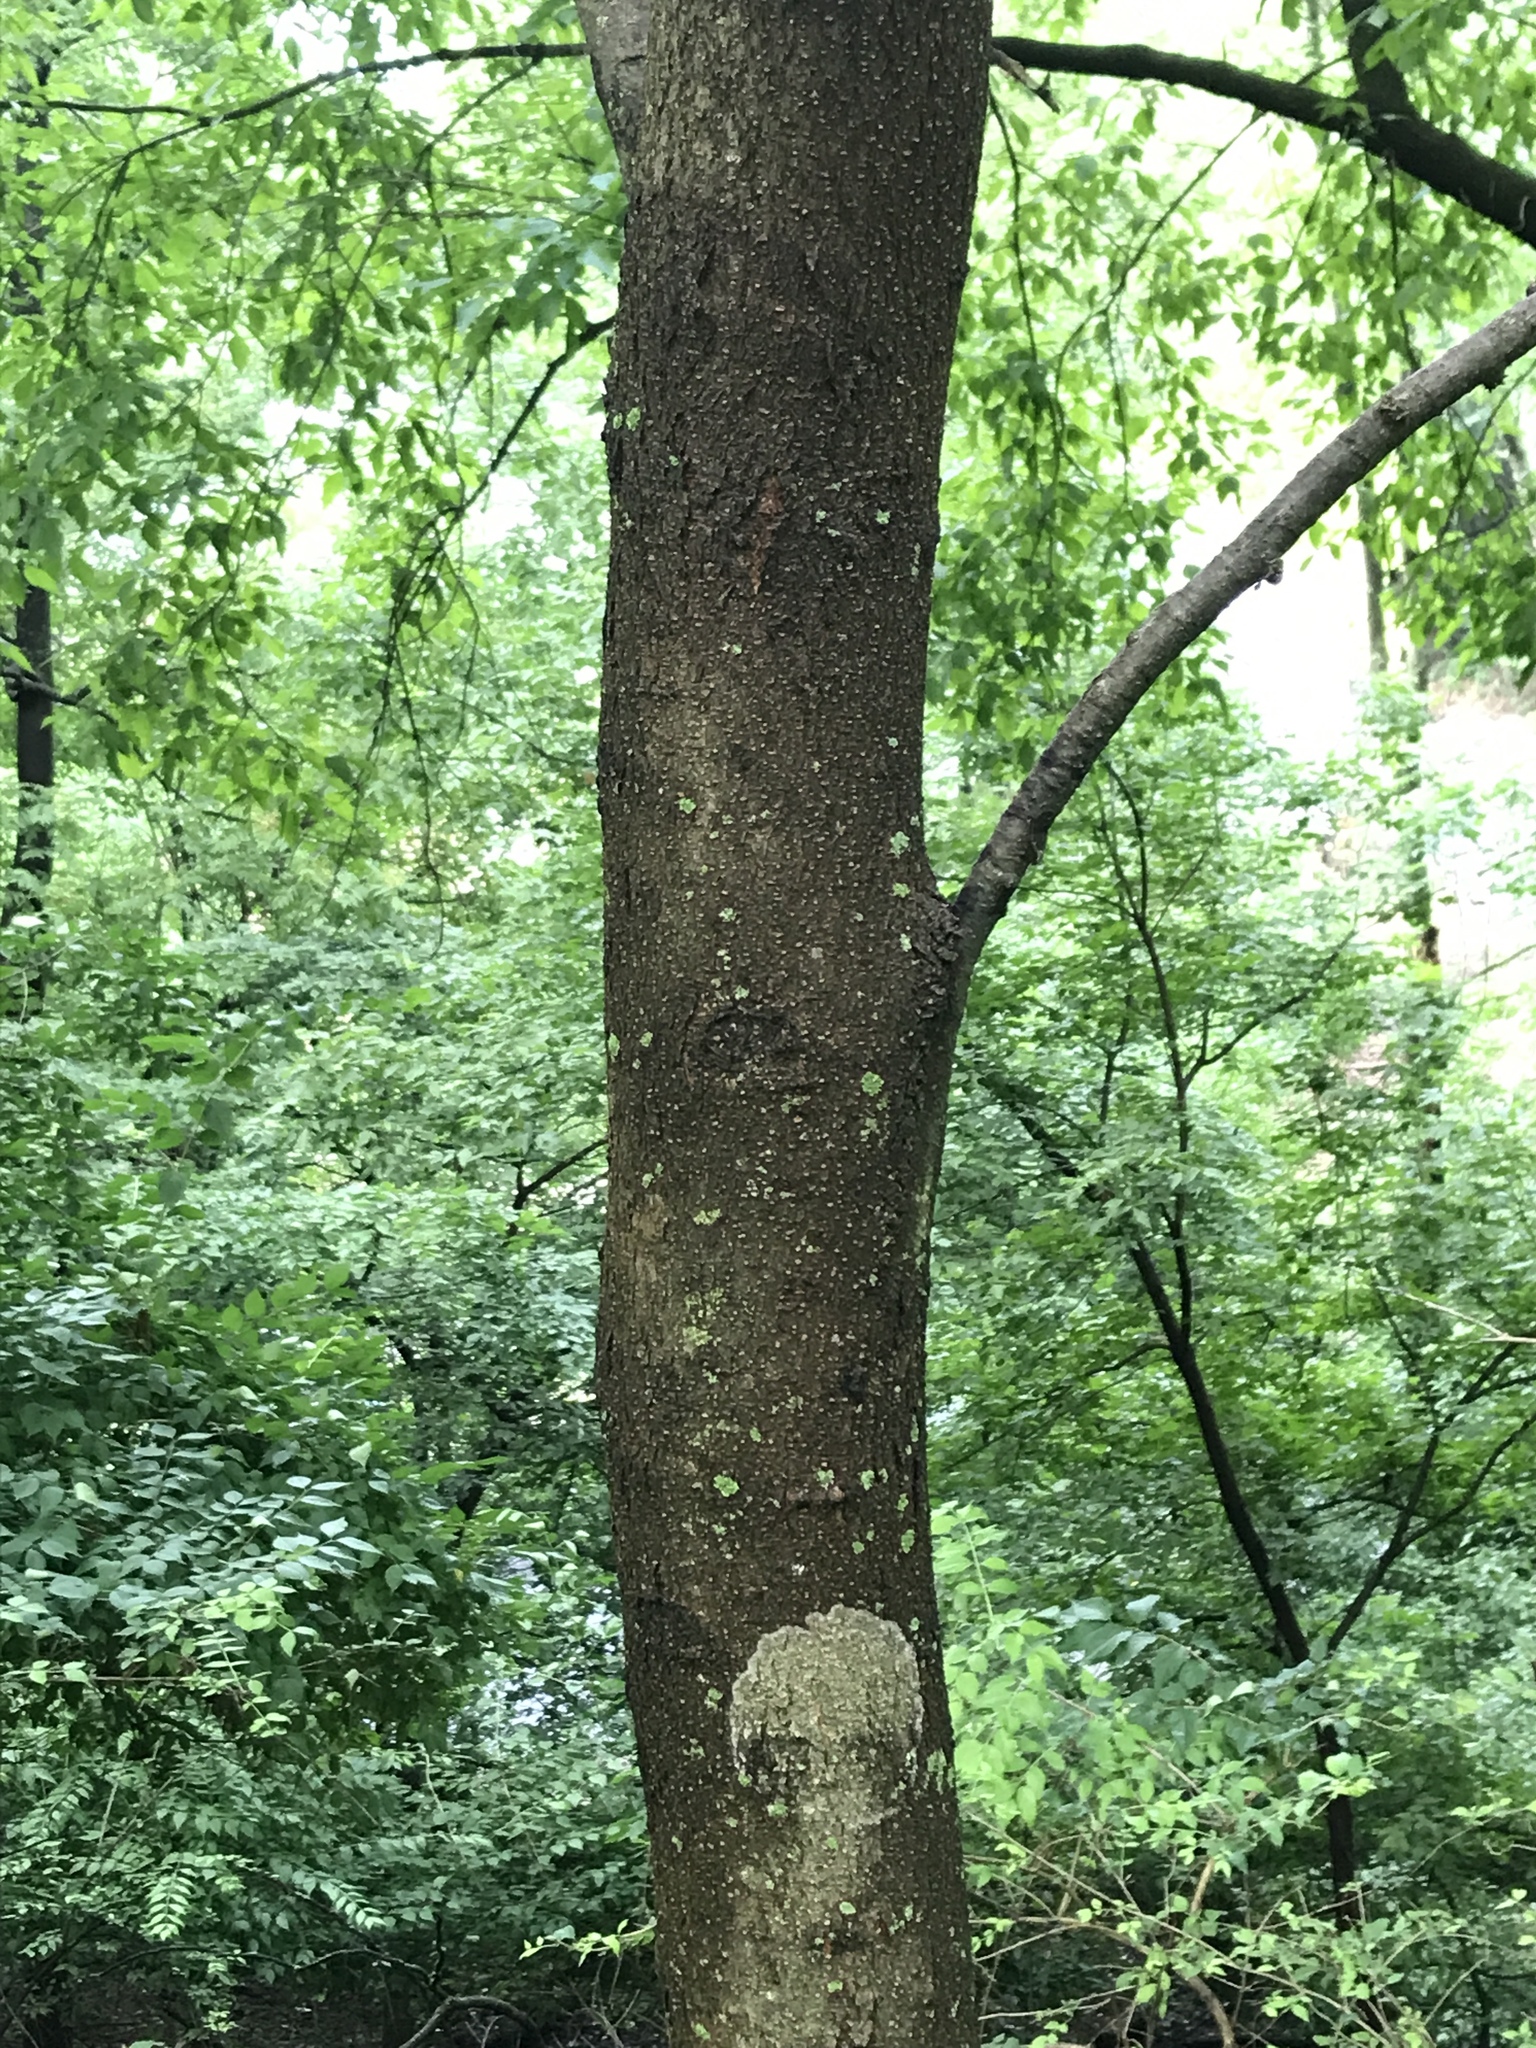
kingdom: Plantae
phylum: Tracheophyta
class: Magnoliopsida
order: Fabales
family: Fabaceae
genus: Gleditsia
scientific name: Gleditsia triacanthos
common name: Common honeylocust
